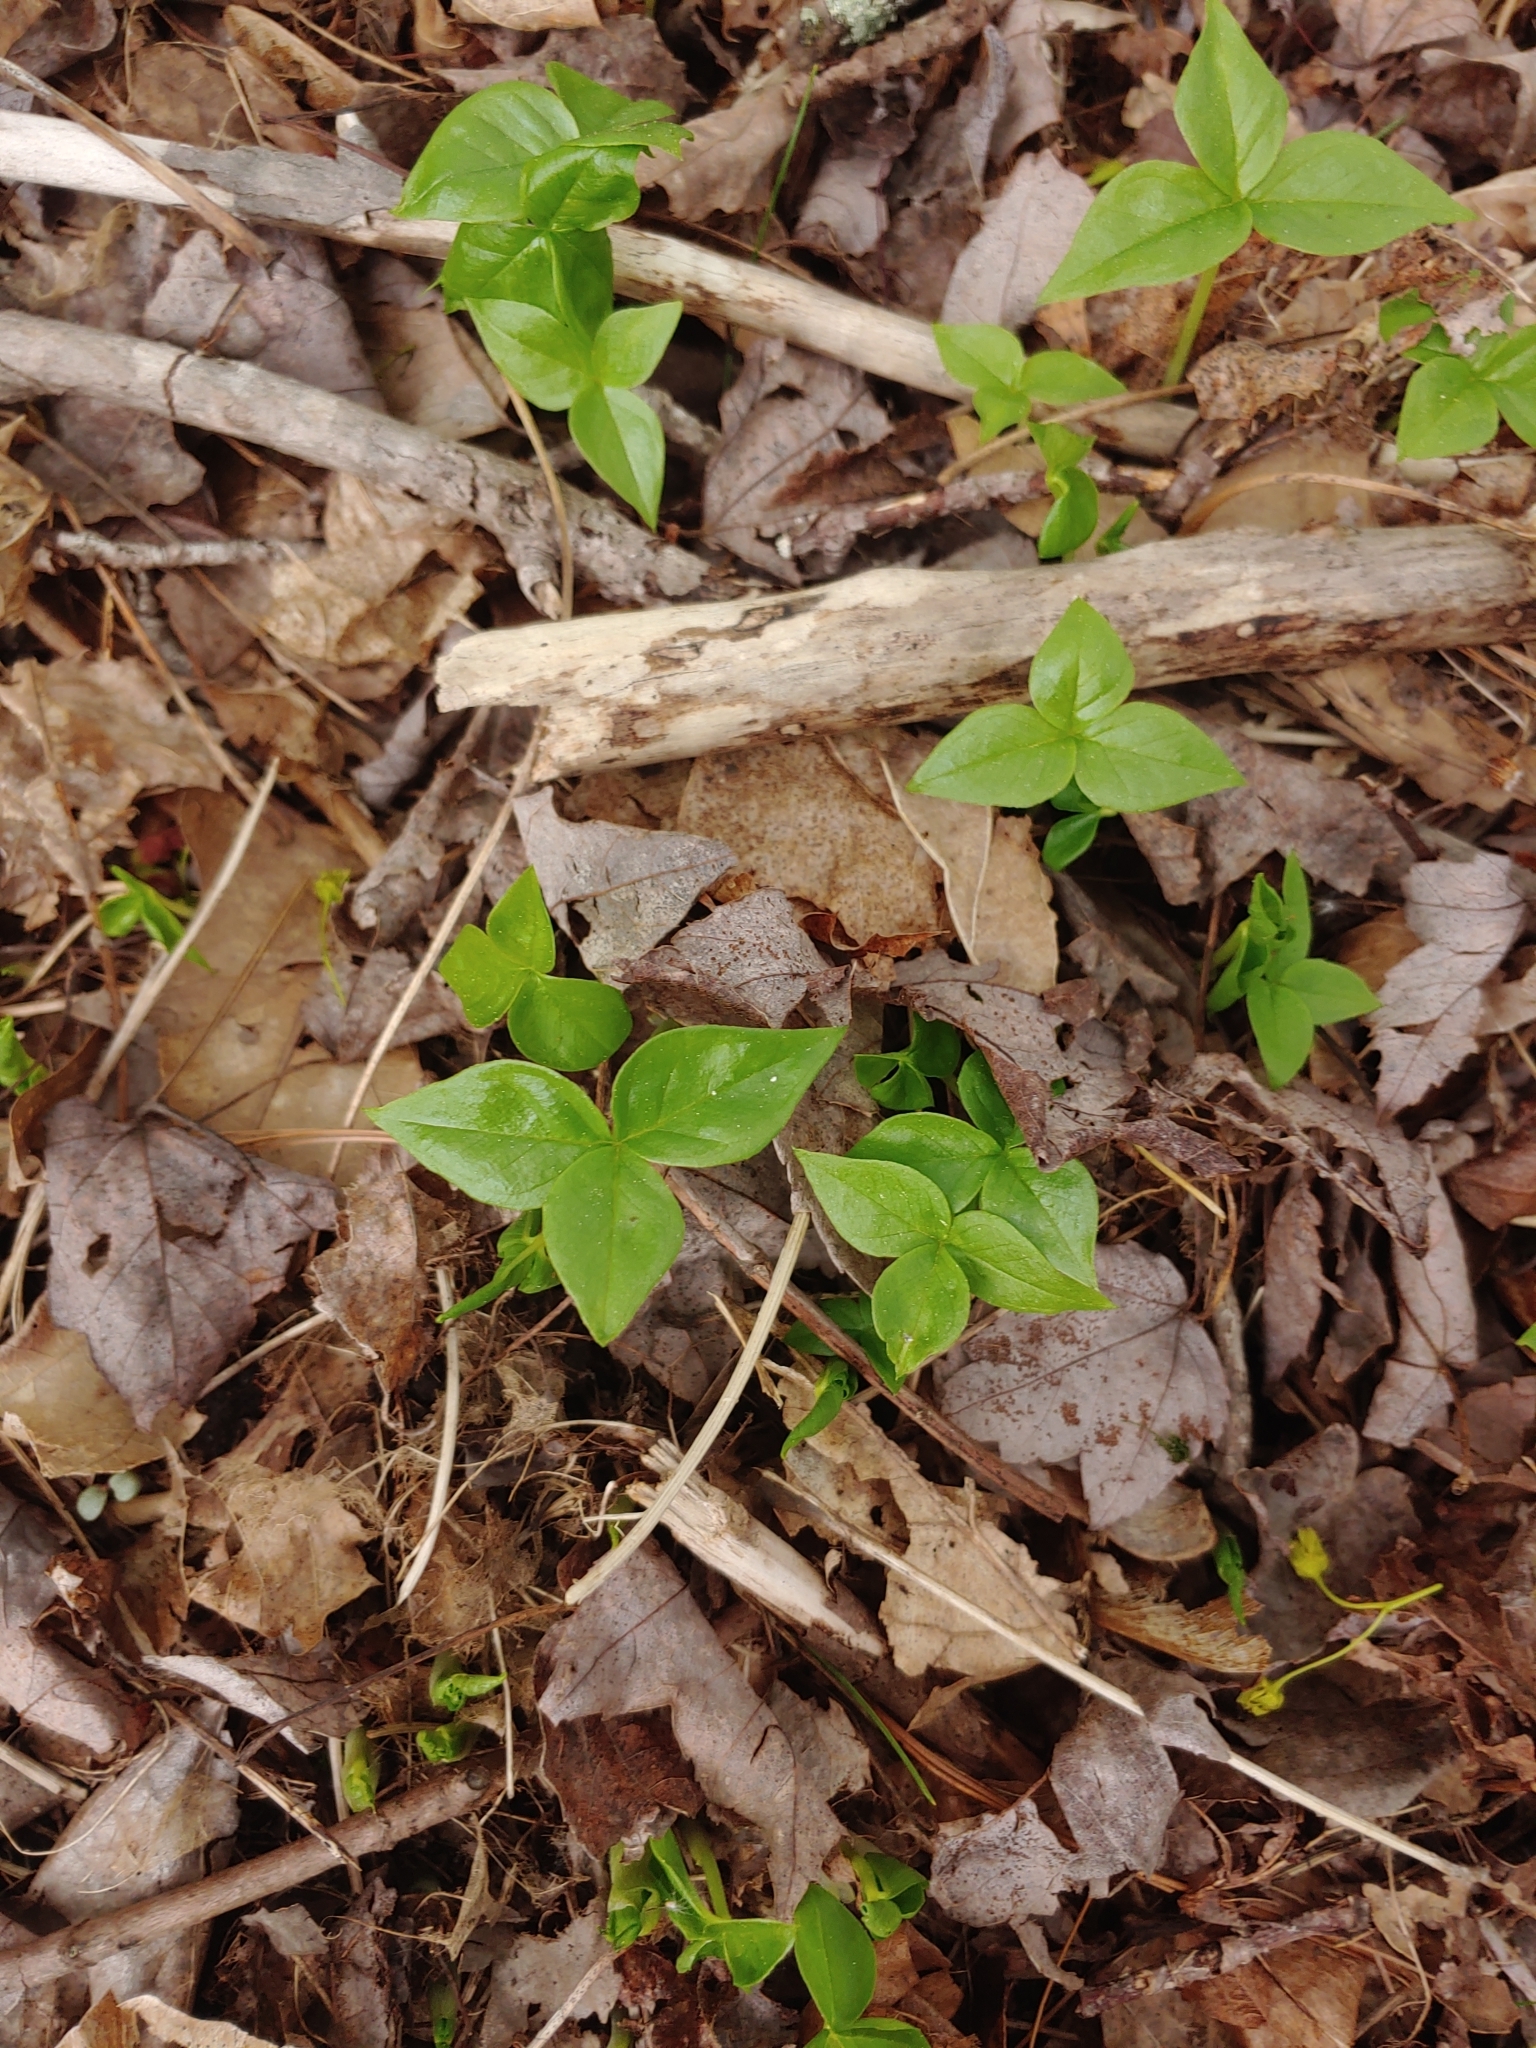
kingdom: Plantae
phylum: Tracheophyta
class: Liliopsida
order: Alismatales
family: Araceae
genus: Arisaema
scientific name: Arisaema triphyllum
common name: Jack-in-the-pulpit
